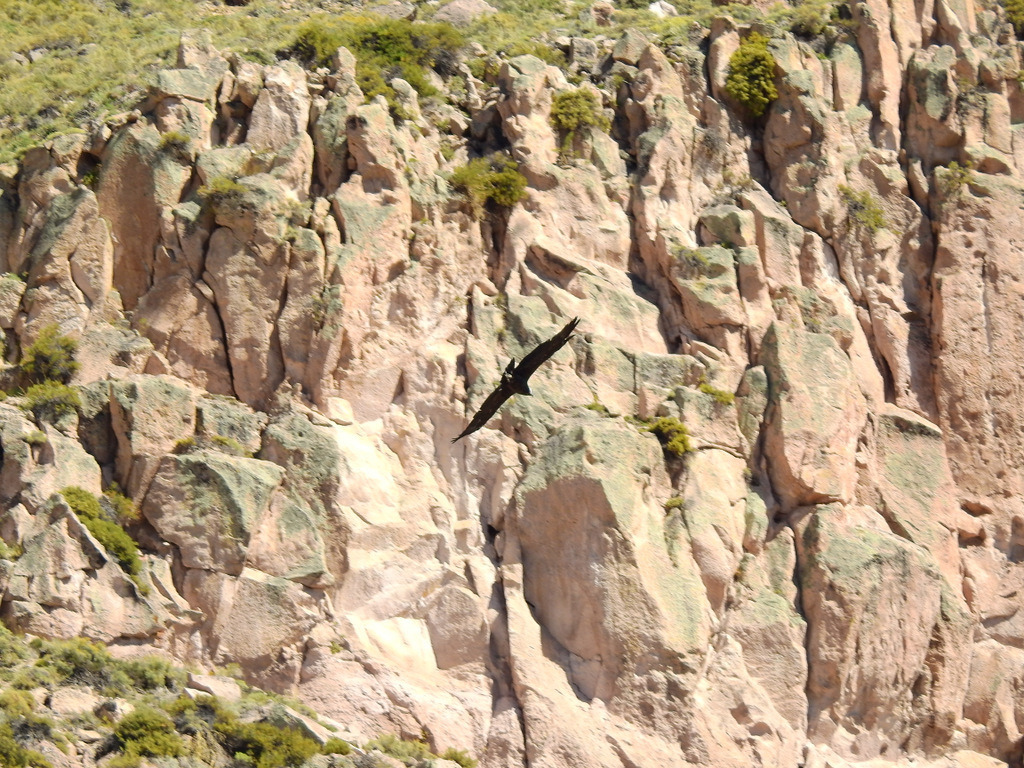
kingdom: Animalia
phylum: Chordata
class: Aves
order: Accipitriformes
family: Cathartidae
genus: Vultur
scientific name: Vultur gryphus
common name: Andean condor
